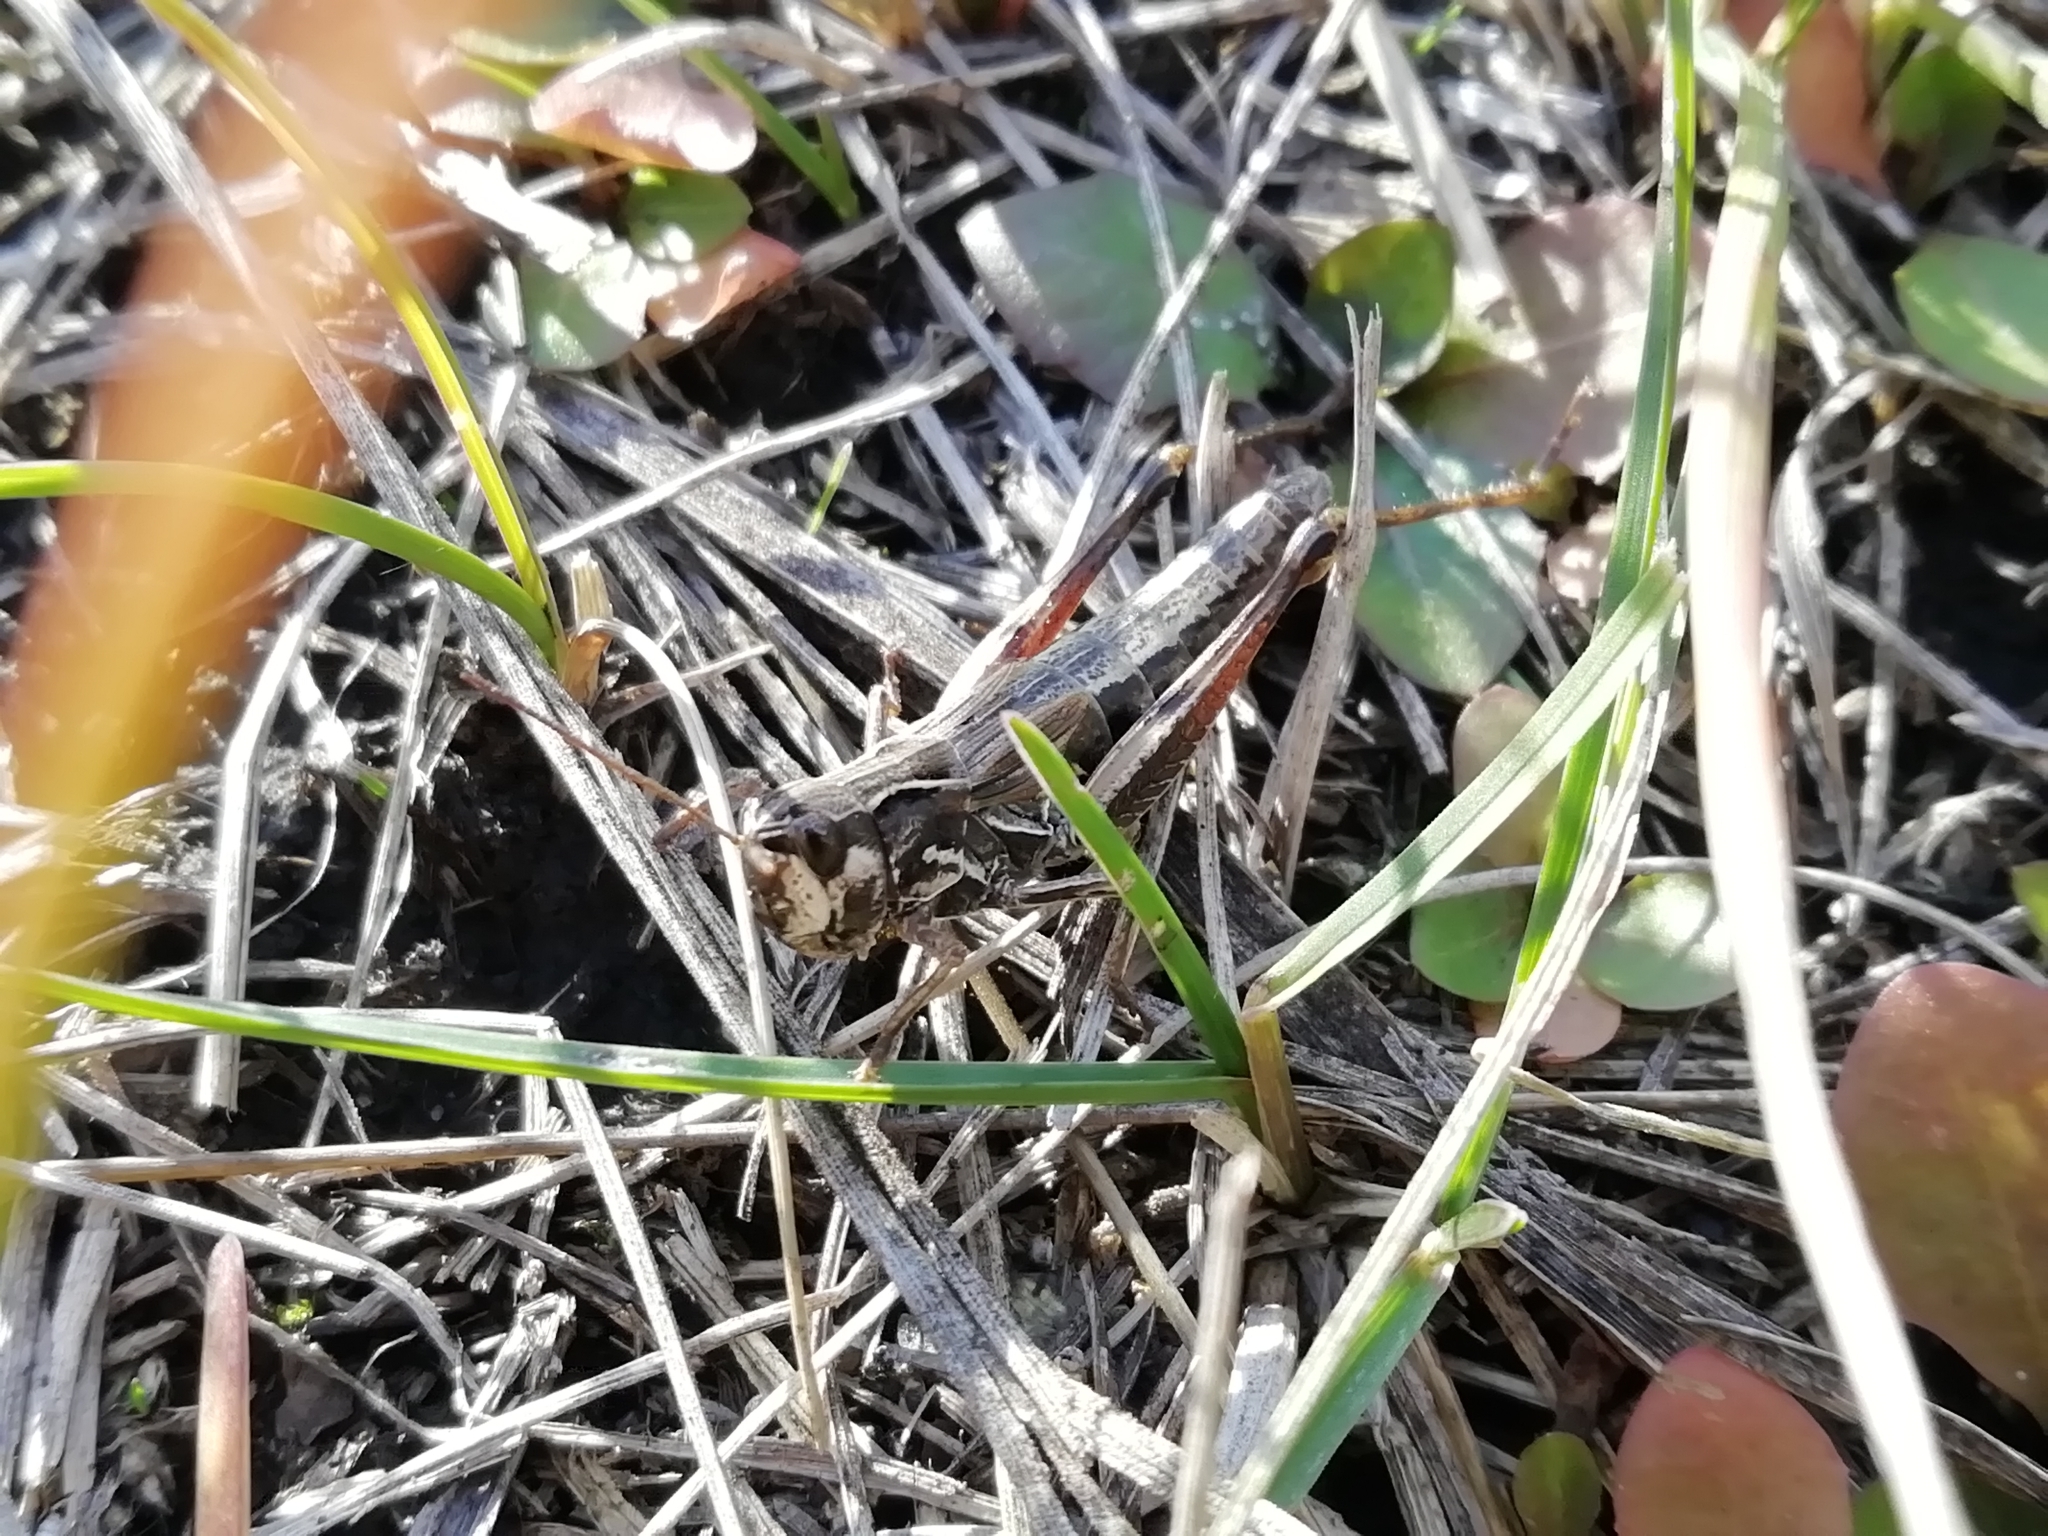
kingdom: Animalia
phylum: Arthropoda
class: Insecta
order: Orthoptera
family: Acrididae
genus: Chorthippus
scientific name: Chorthippus fallax
